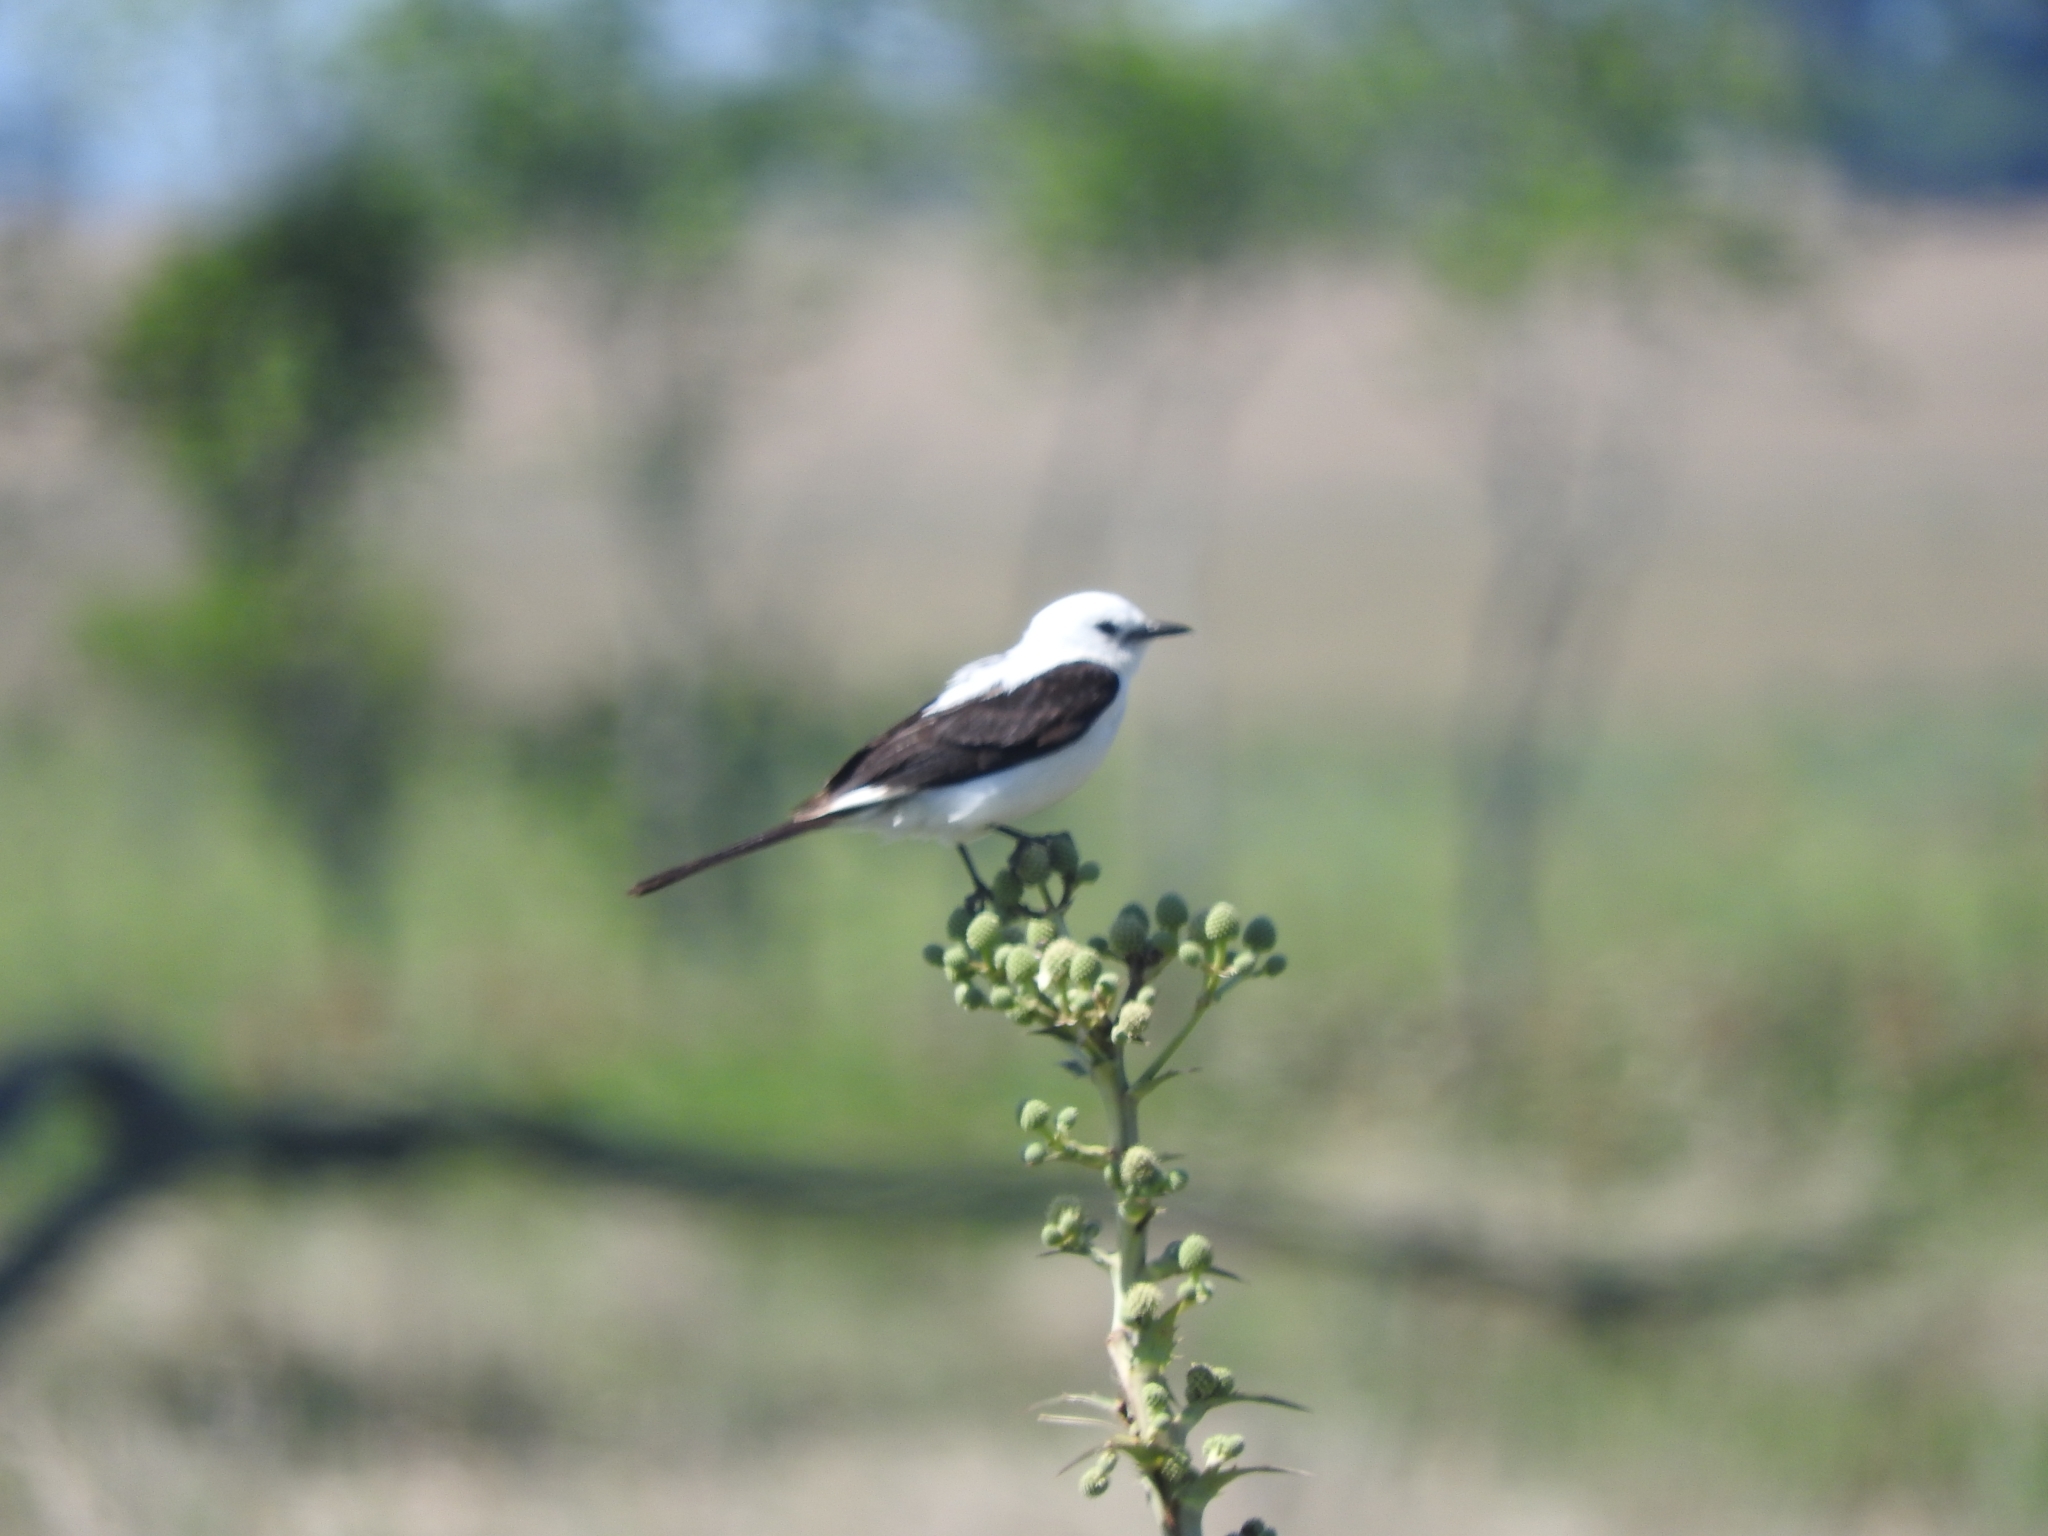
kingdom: Animalia
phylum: Chordata
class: Aves
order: Passeriformes
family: Tyrannidae
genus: Heteroxolmis
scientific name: Heteroxolmis dominicana
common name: Black-and-white monjita
